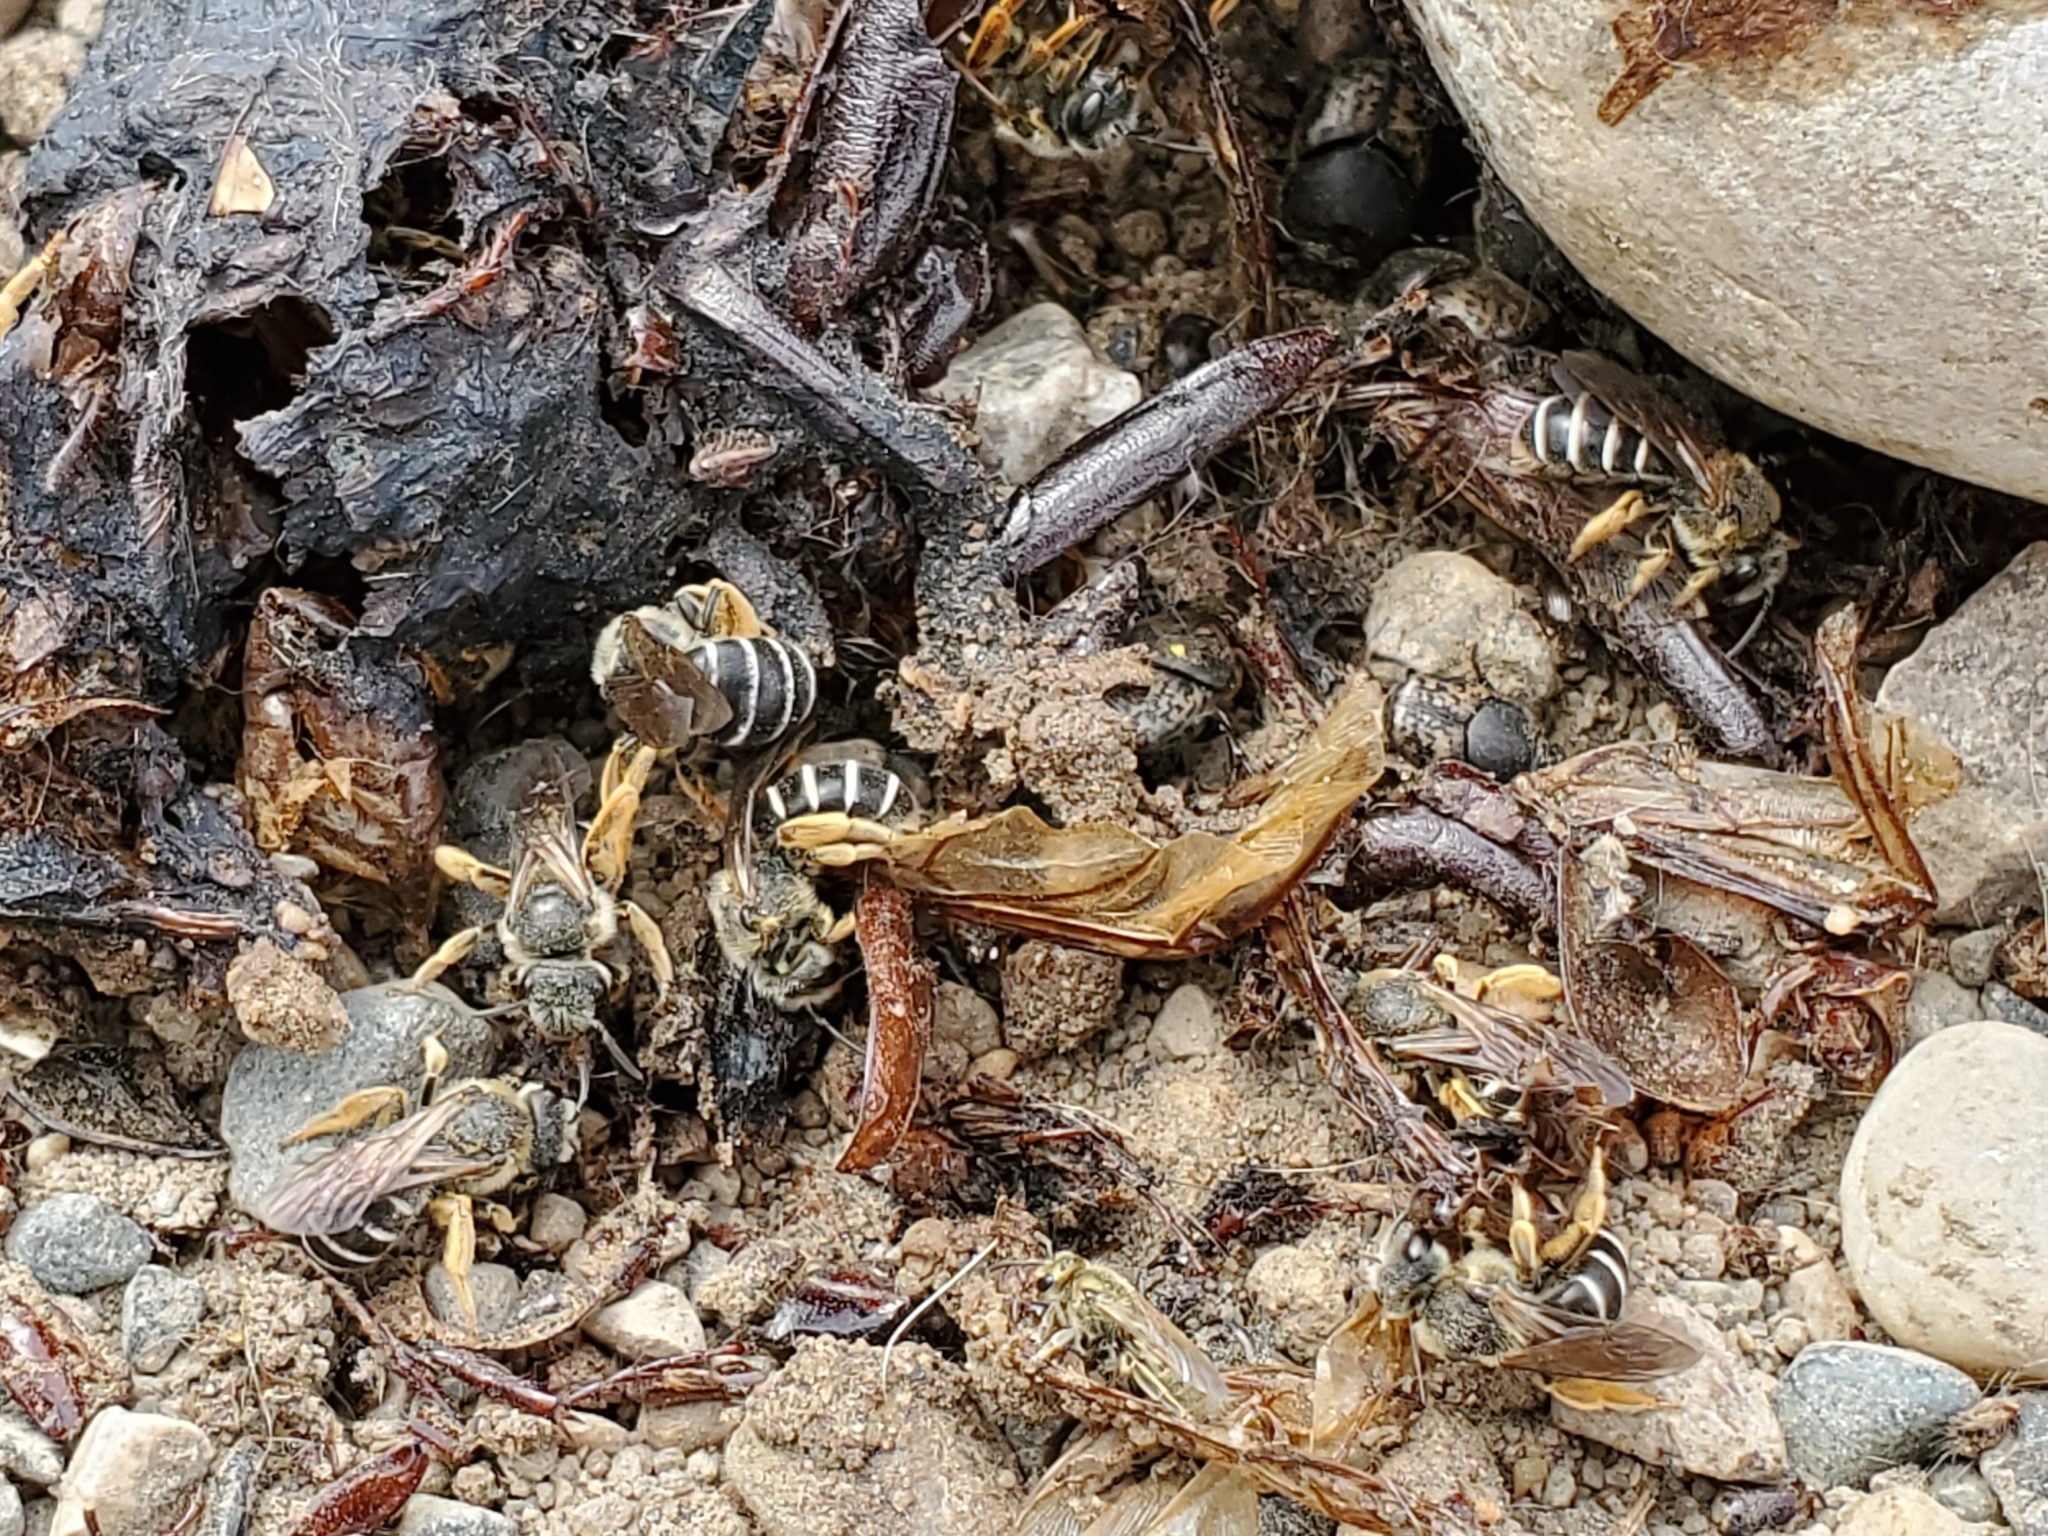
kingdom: Animalia
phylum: Arthropoda
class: Insecta
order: Hymenoptera
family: Halictidae
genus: Halictus
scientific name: Halictus rubicundus
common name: Orange-legged furrow bee
